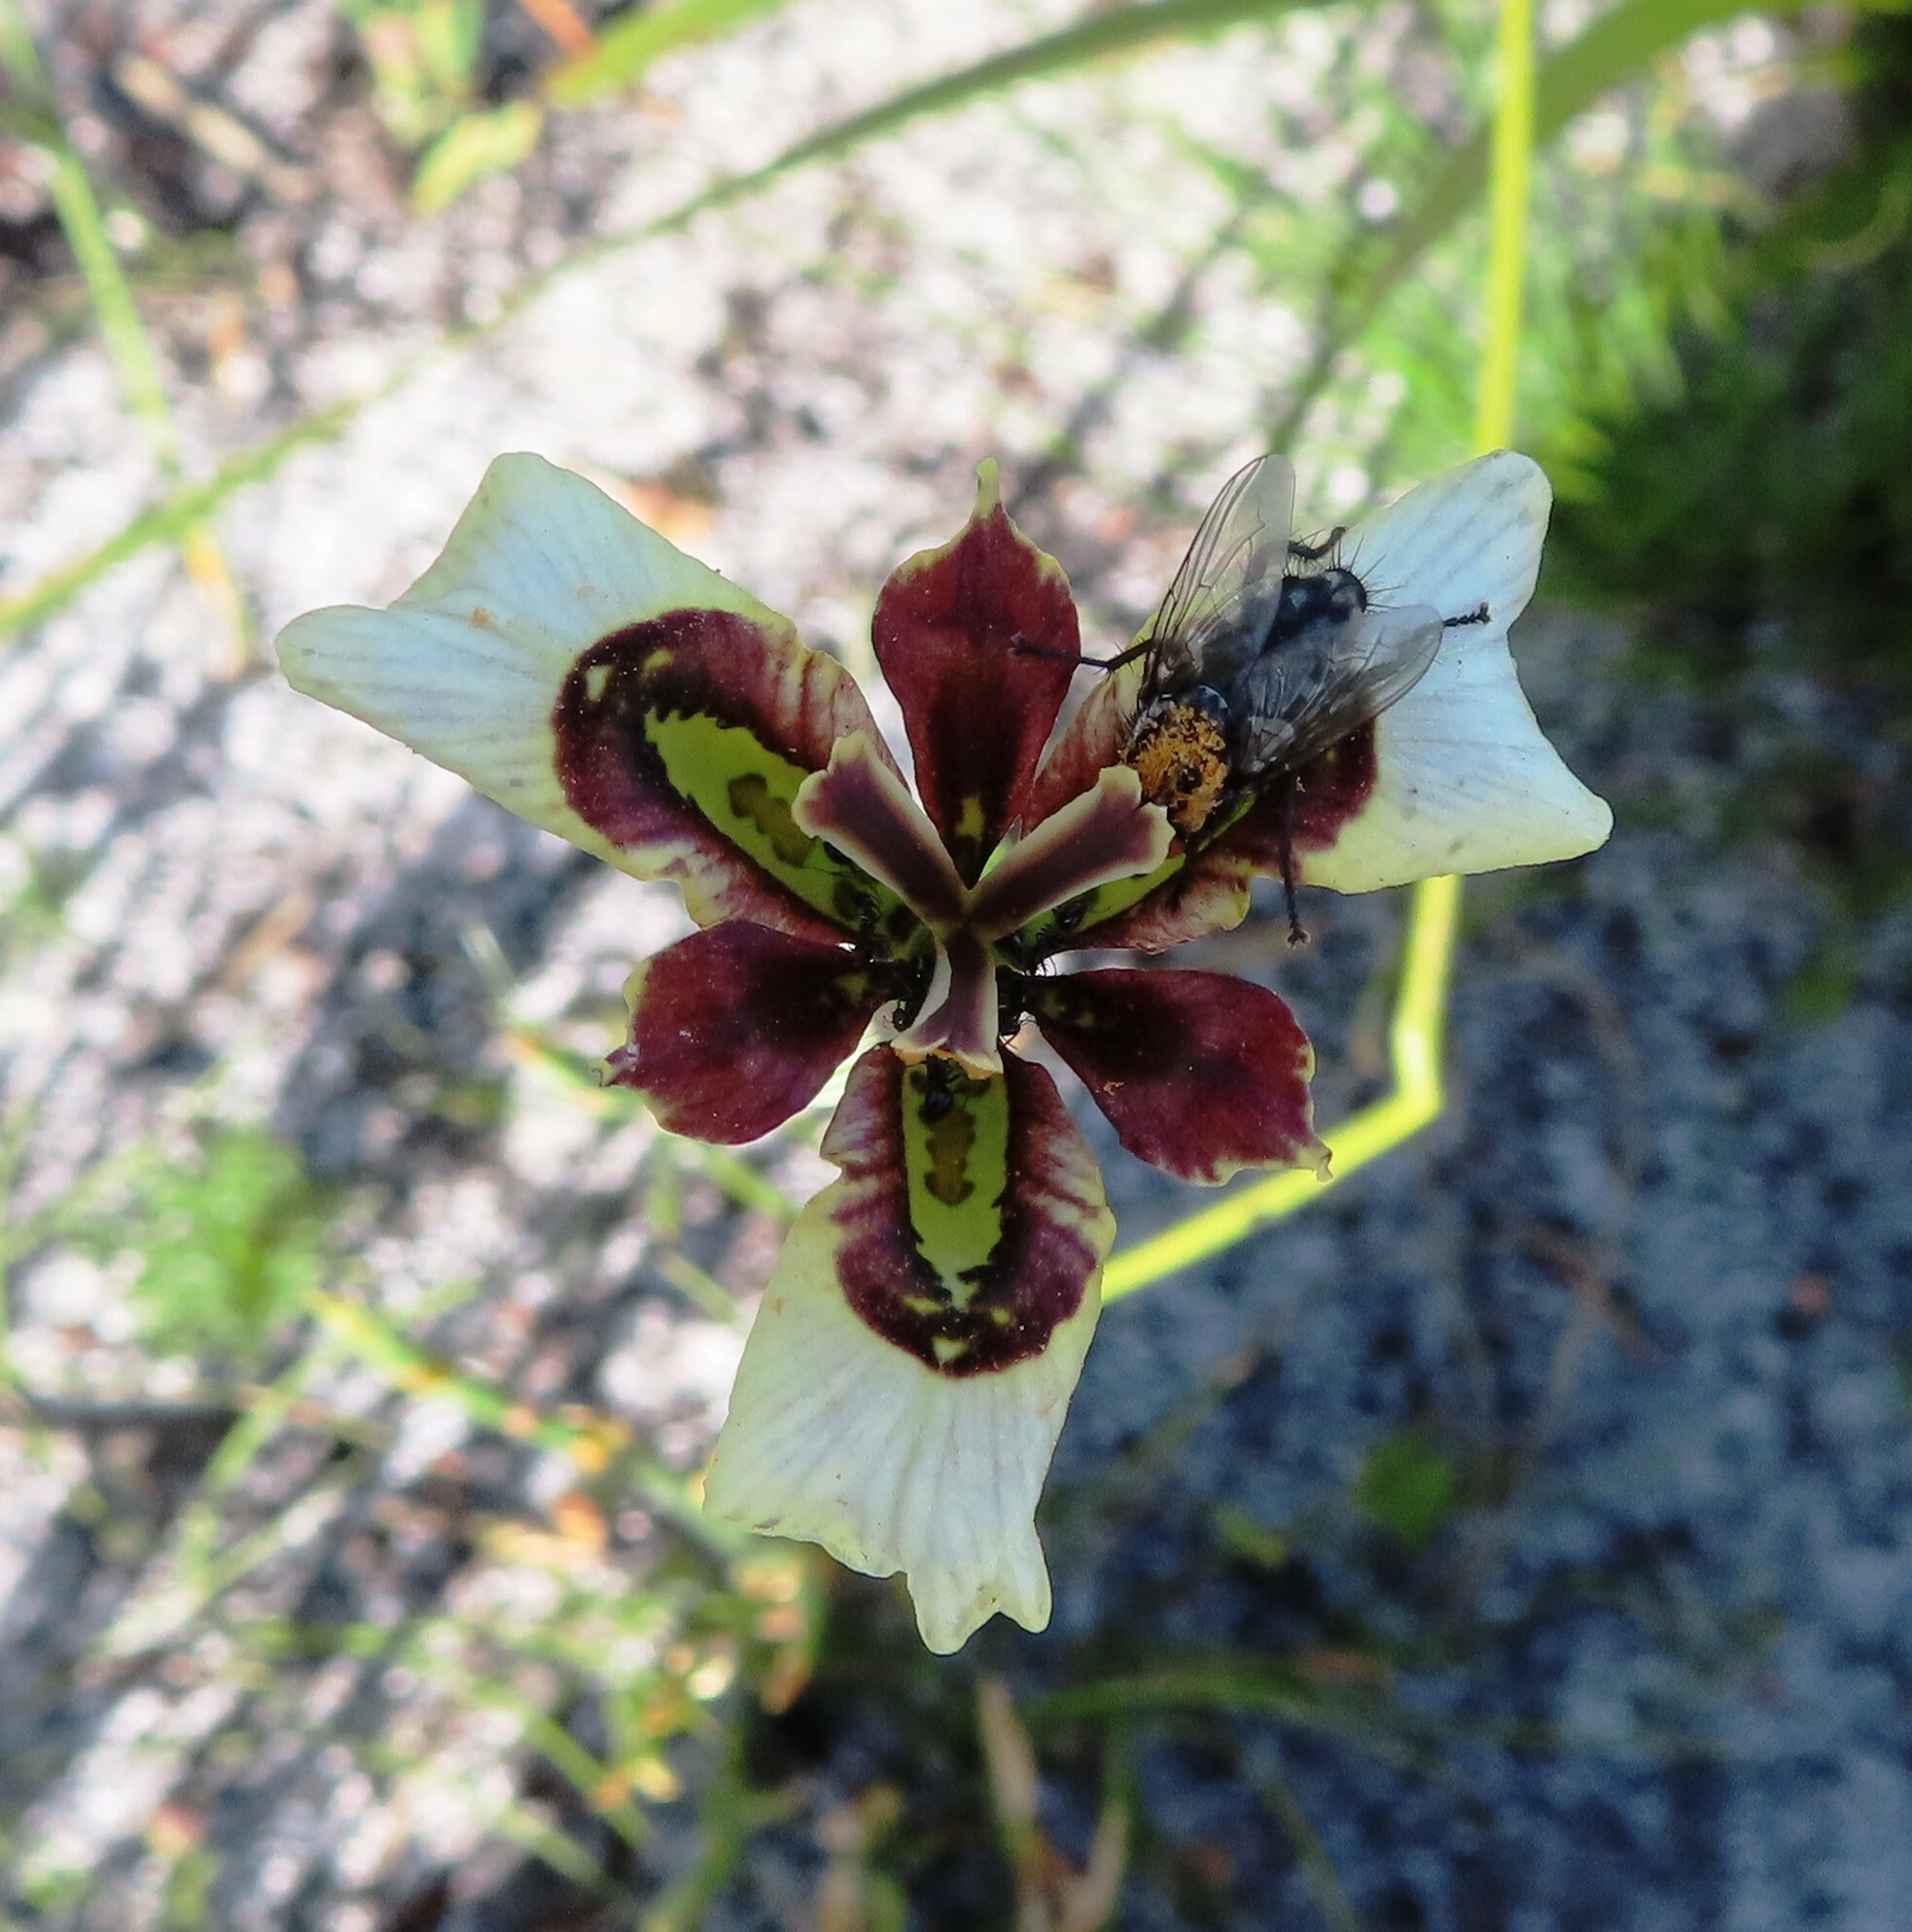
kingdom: Plantae
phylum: Tracheophyta
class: Liliopsida
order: Asparagales
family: Iridaceae
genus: Moraea
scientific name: Moraea lurida
